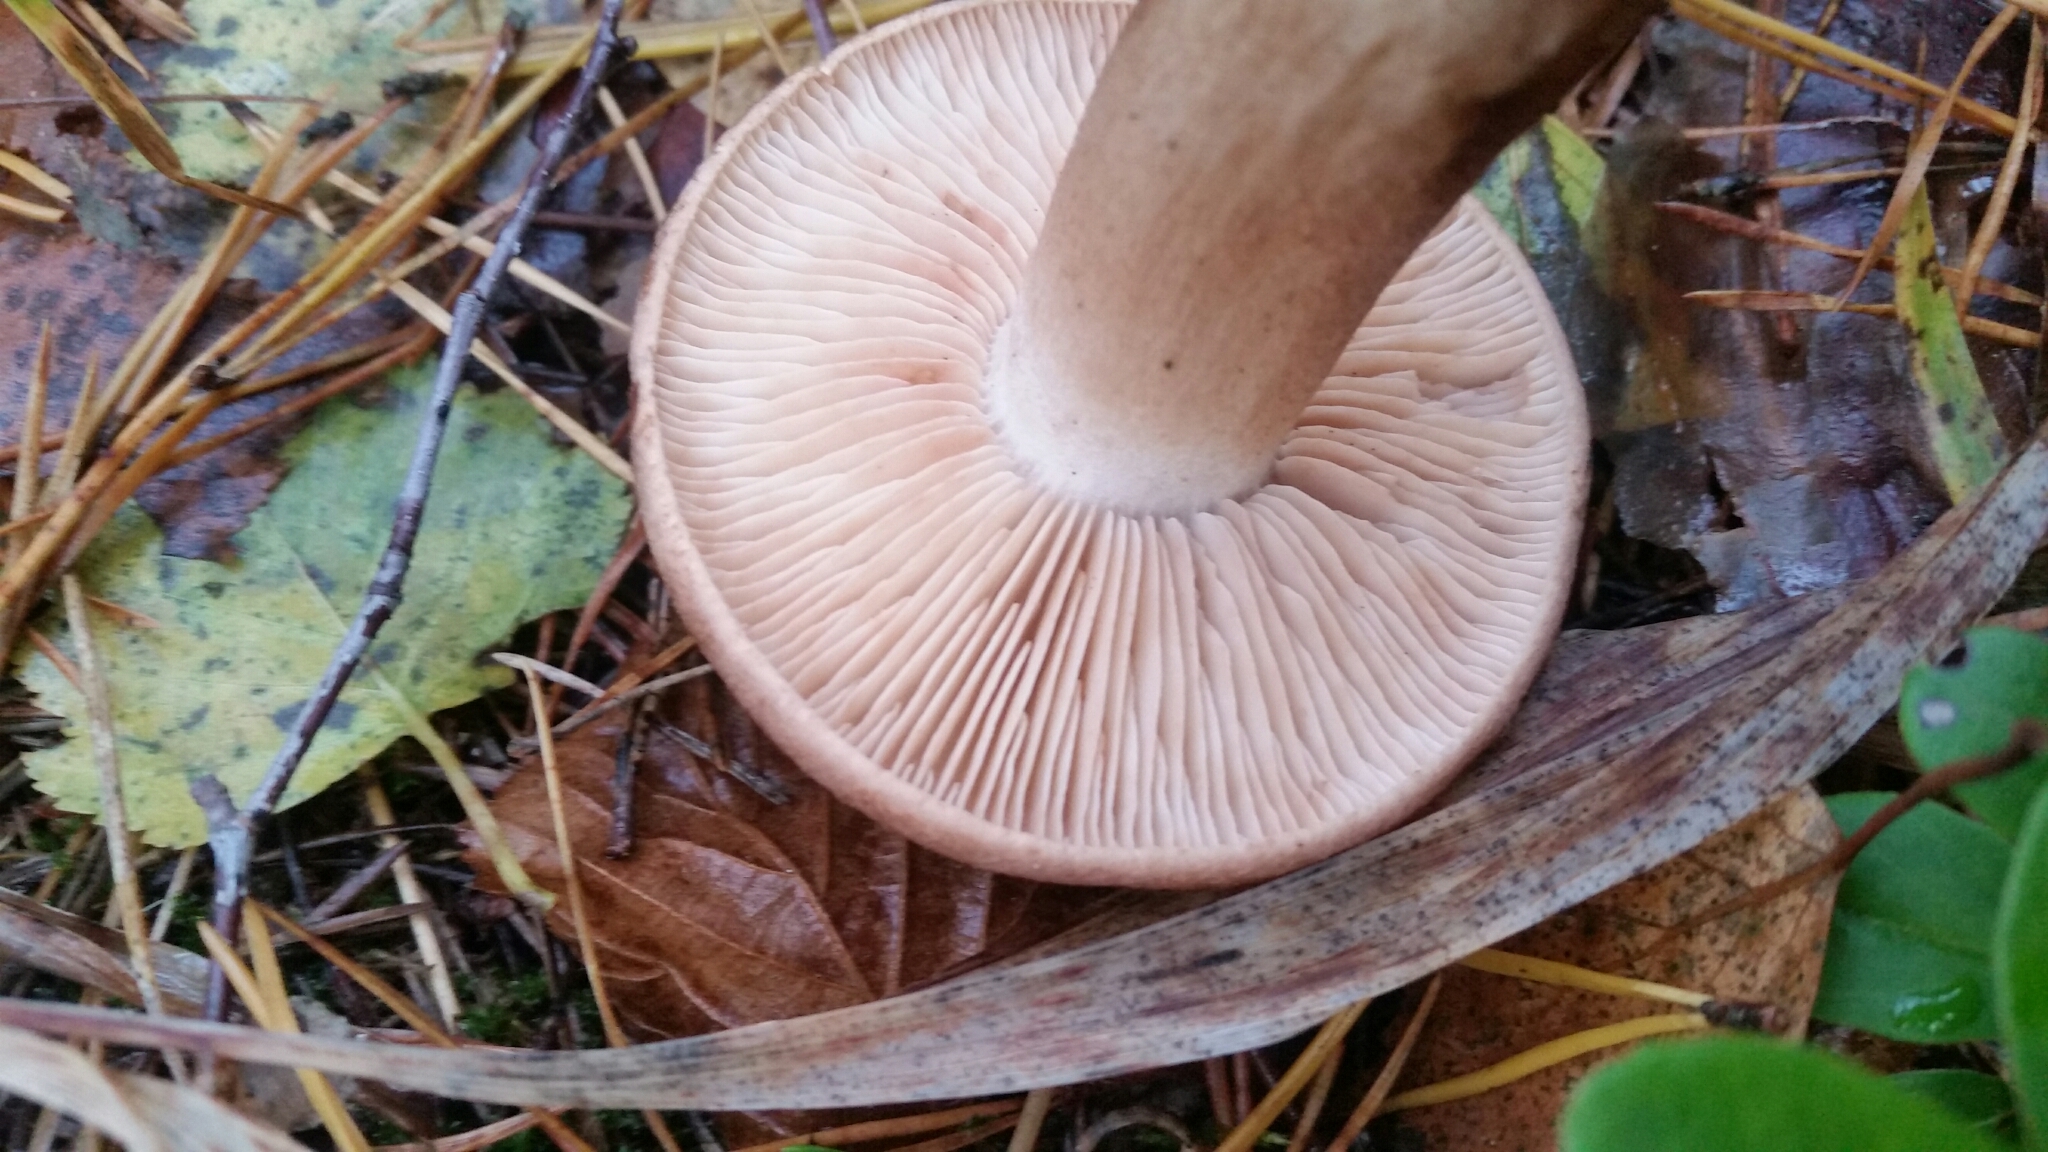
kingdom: Fungi
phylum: Basidiomycota
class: Agaricomycetes
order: Agaricales
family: Tricholomataceae
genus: Tricholoma
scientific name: Tricholoma vaccinum
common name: Scaly knight
